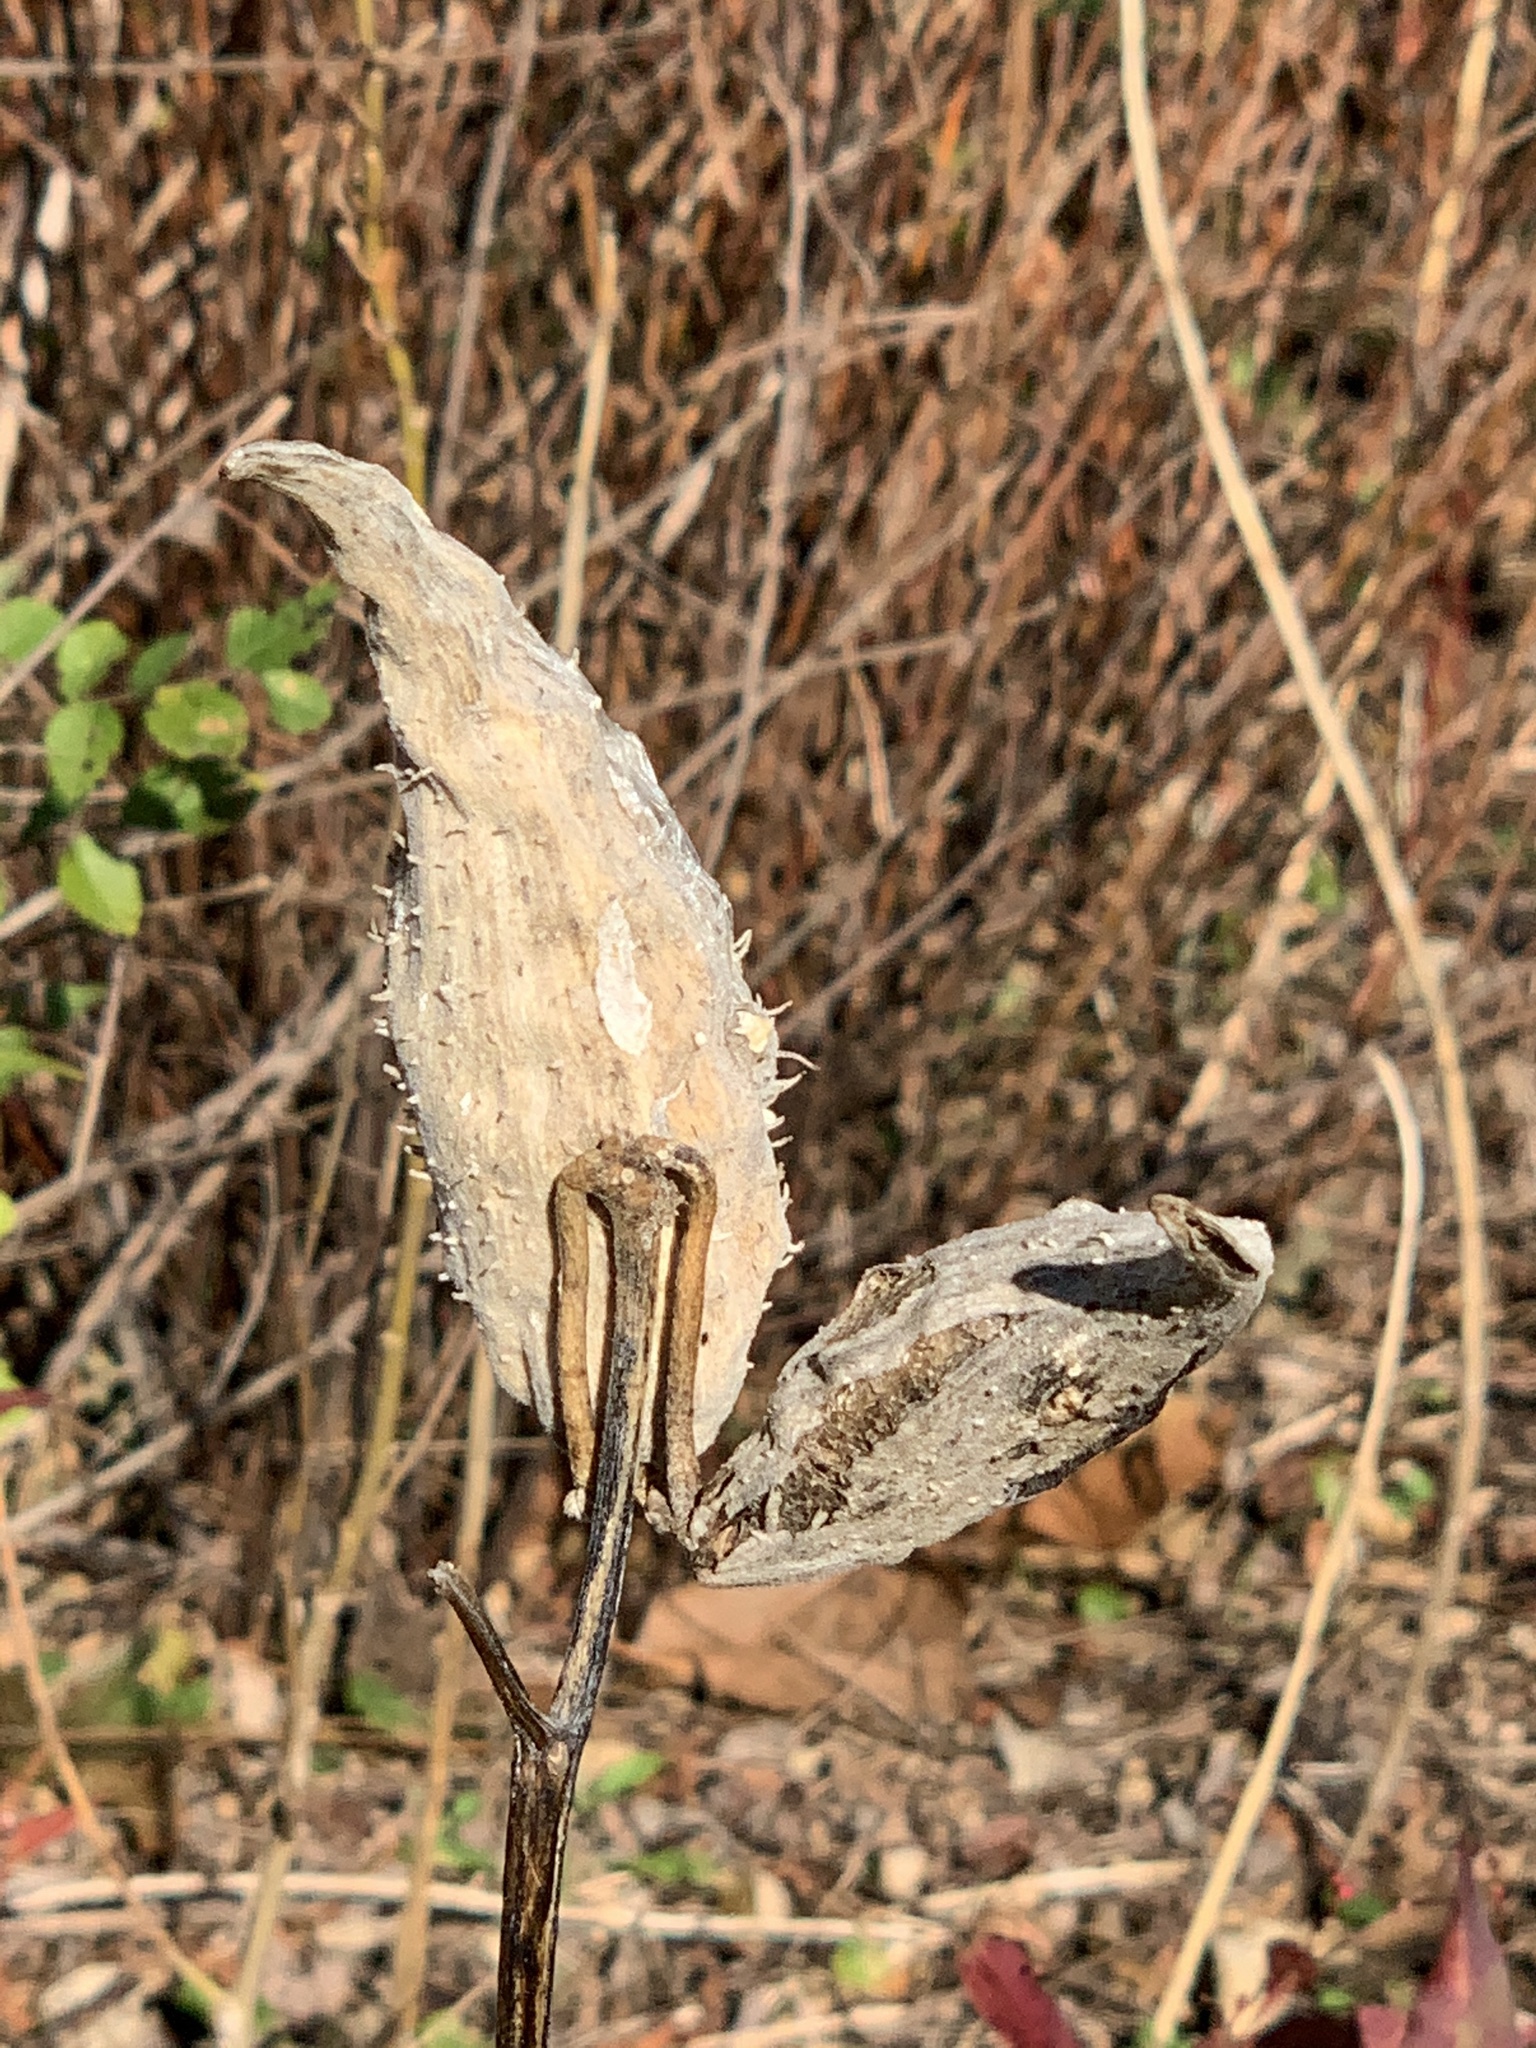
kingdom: Plantae
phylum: Tracheophyta
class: Magnoliopsida
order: Gentianales
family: Apocynaceae
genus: Asclepias
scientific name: Asclepias syriaca
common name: Common milkweed
